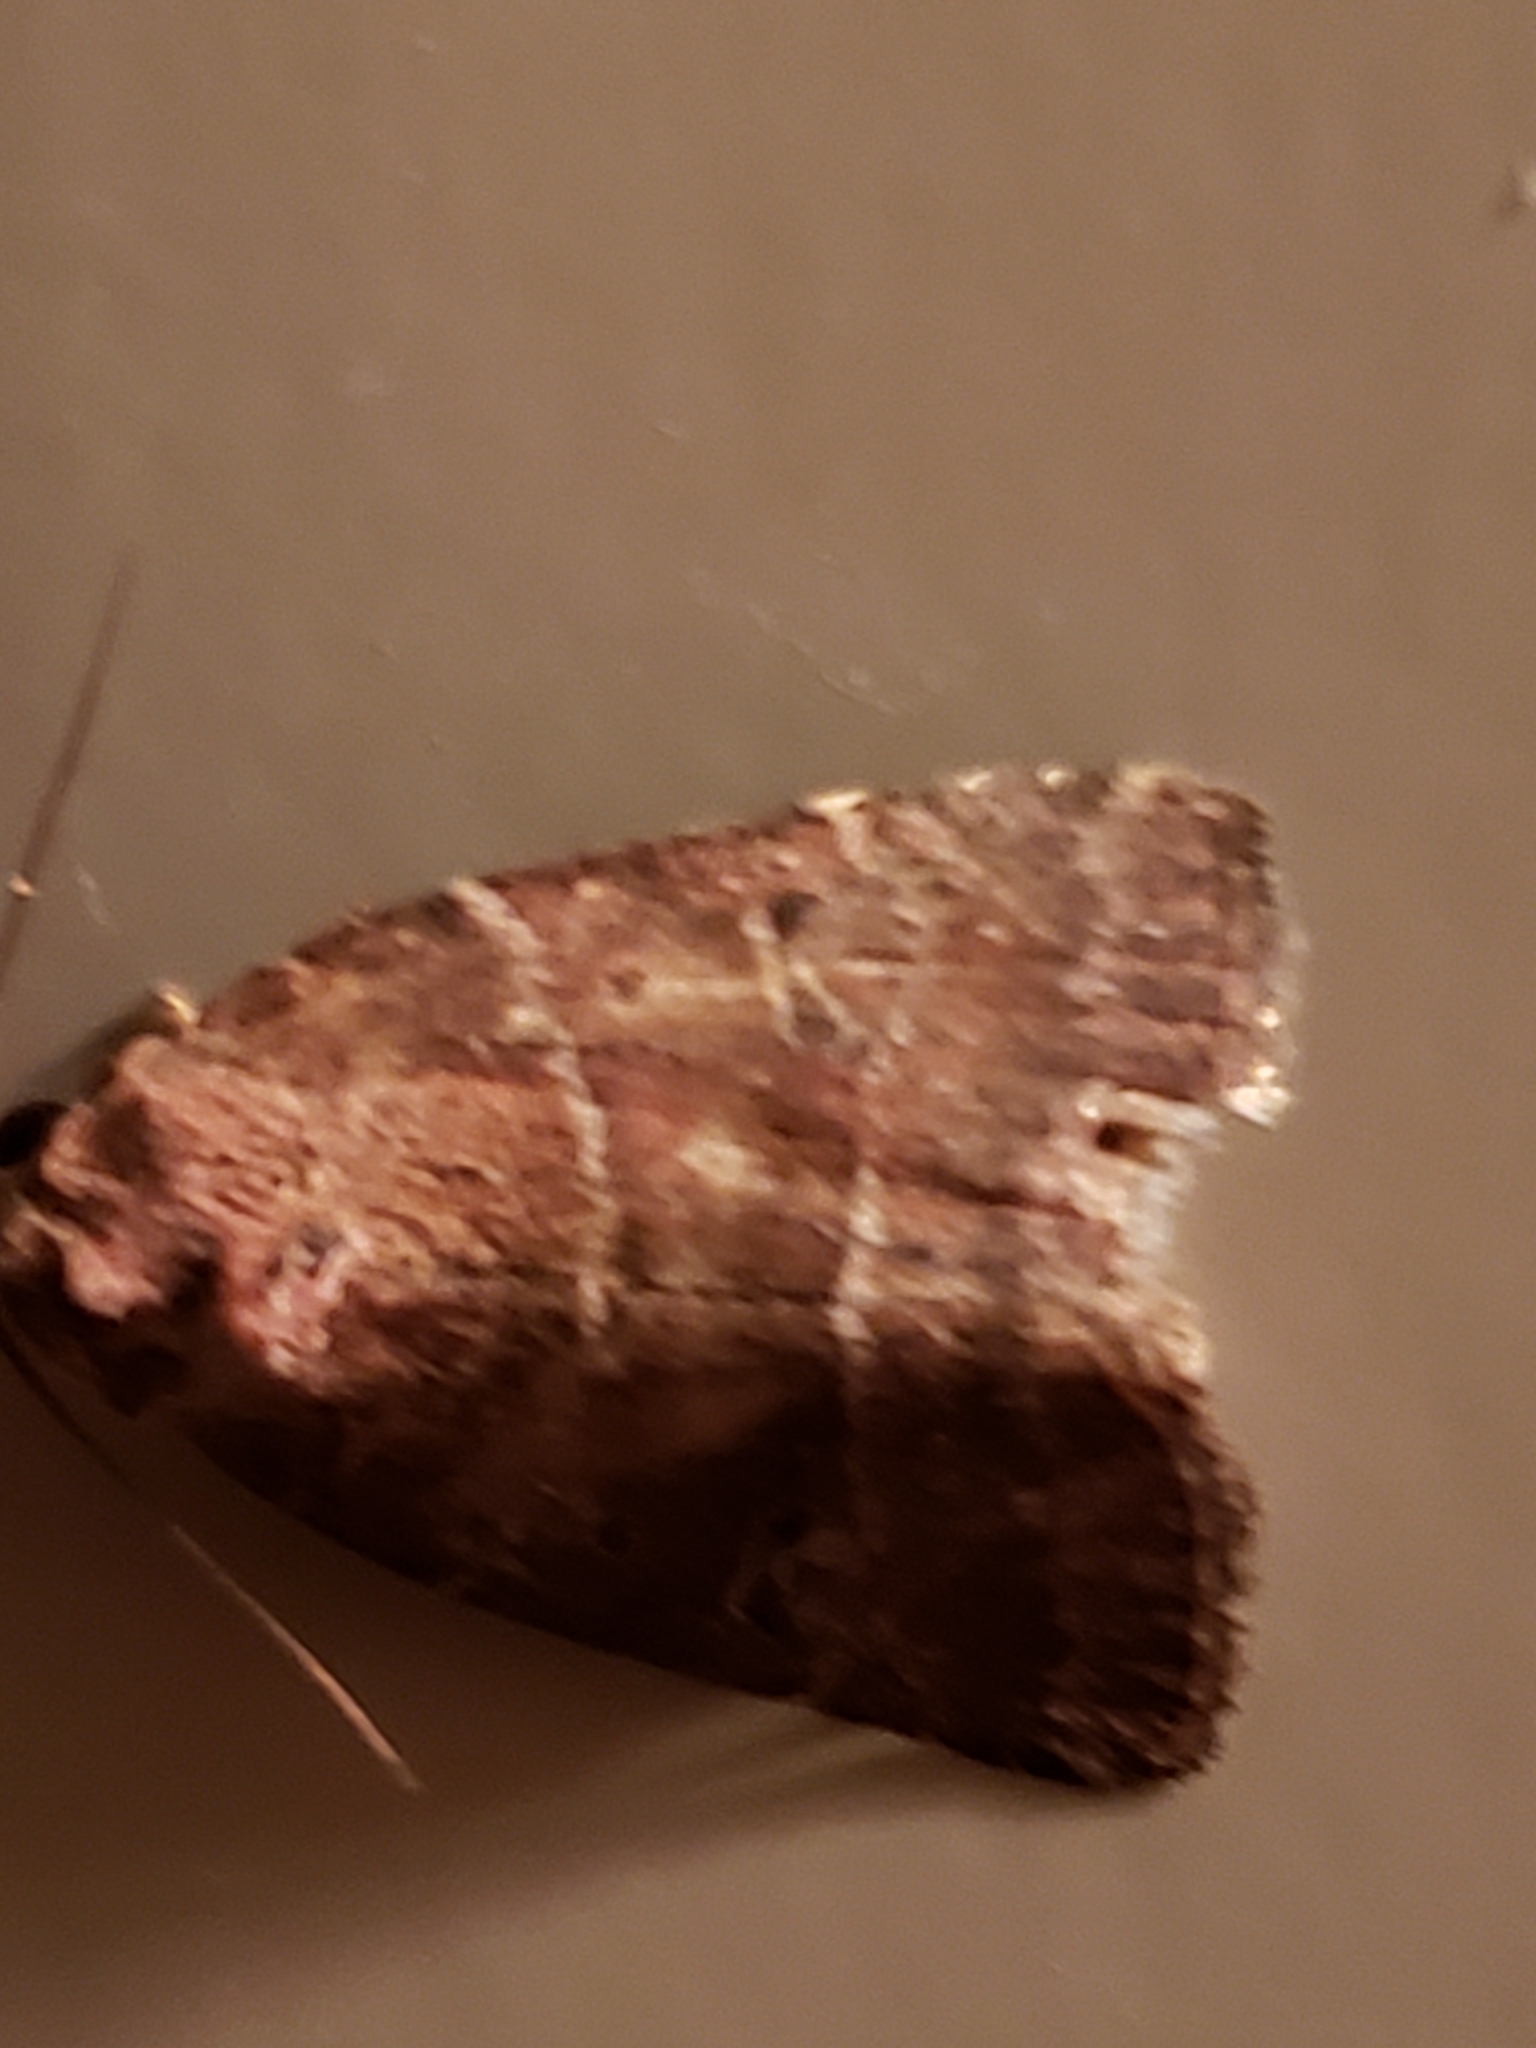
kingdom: Animalia
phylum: Arthropoda
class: Insecta
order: Lepidoptera
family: Noctuidae
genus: Elaphria
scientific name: Elaphria grata
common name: Grateful midget moth
